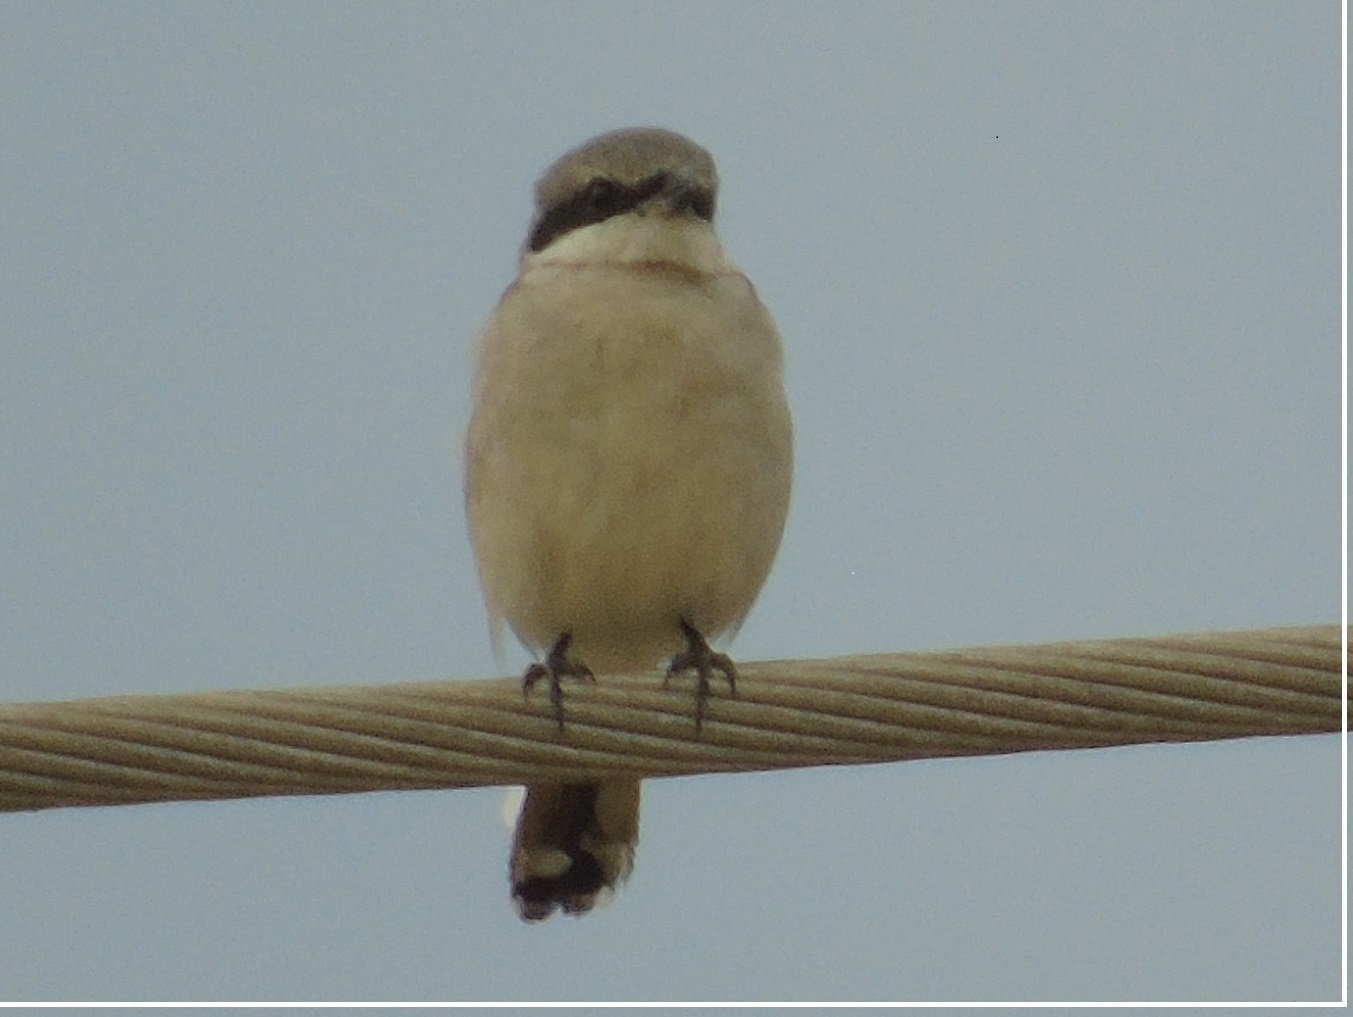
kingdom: Animalia
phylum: Chordata
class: Aves
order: Passeriformes
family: Laniidae
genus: Lanius
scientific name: Lanius ludovicianus
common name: Loggerhead shrike
